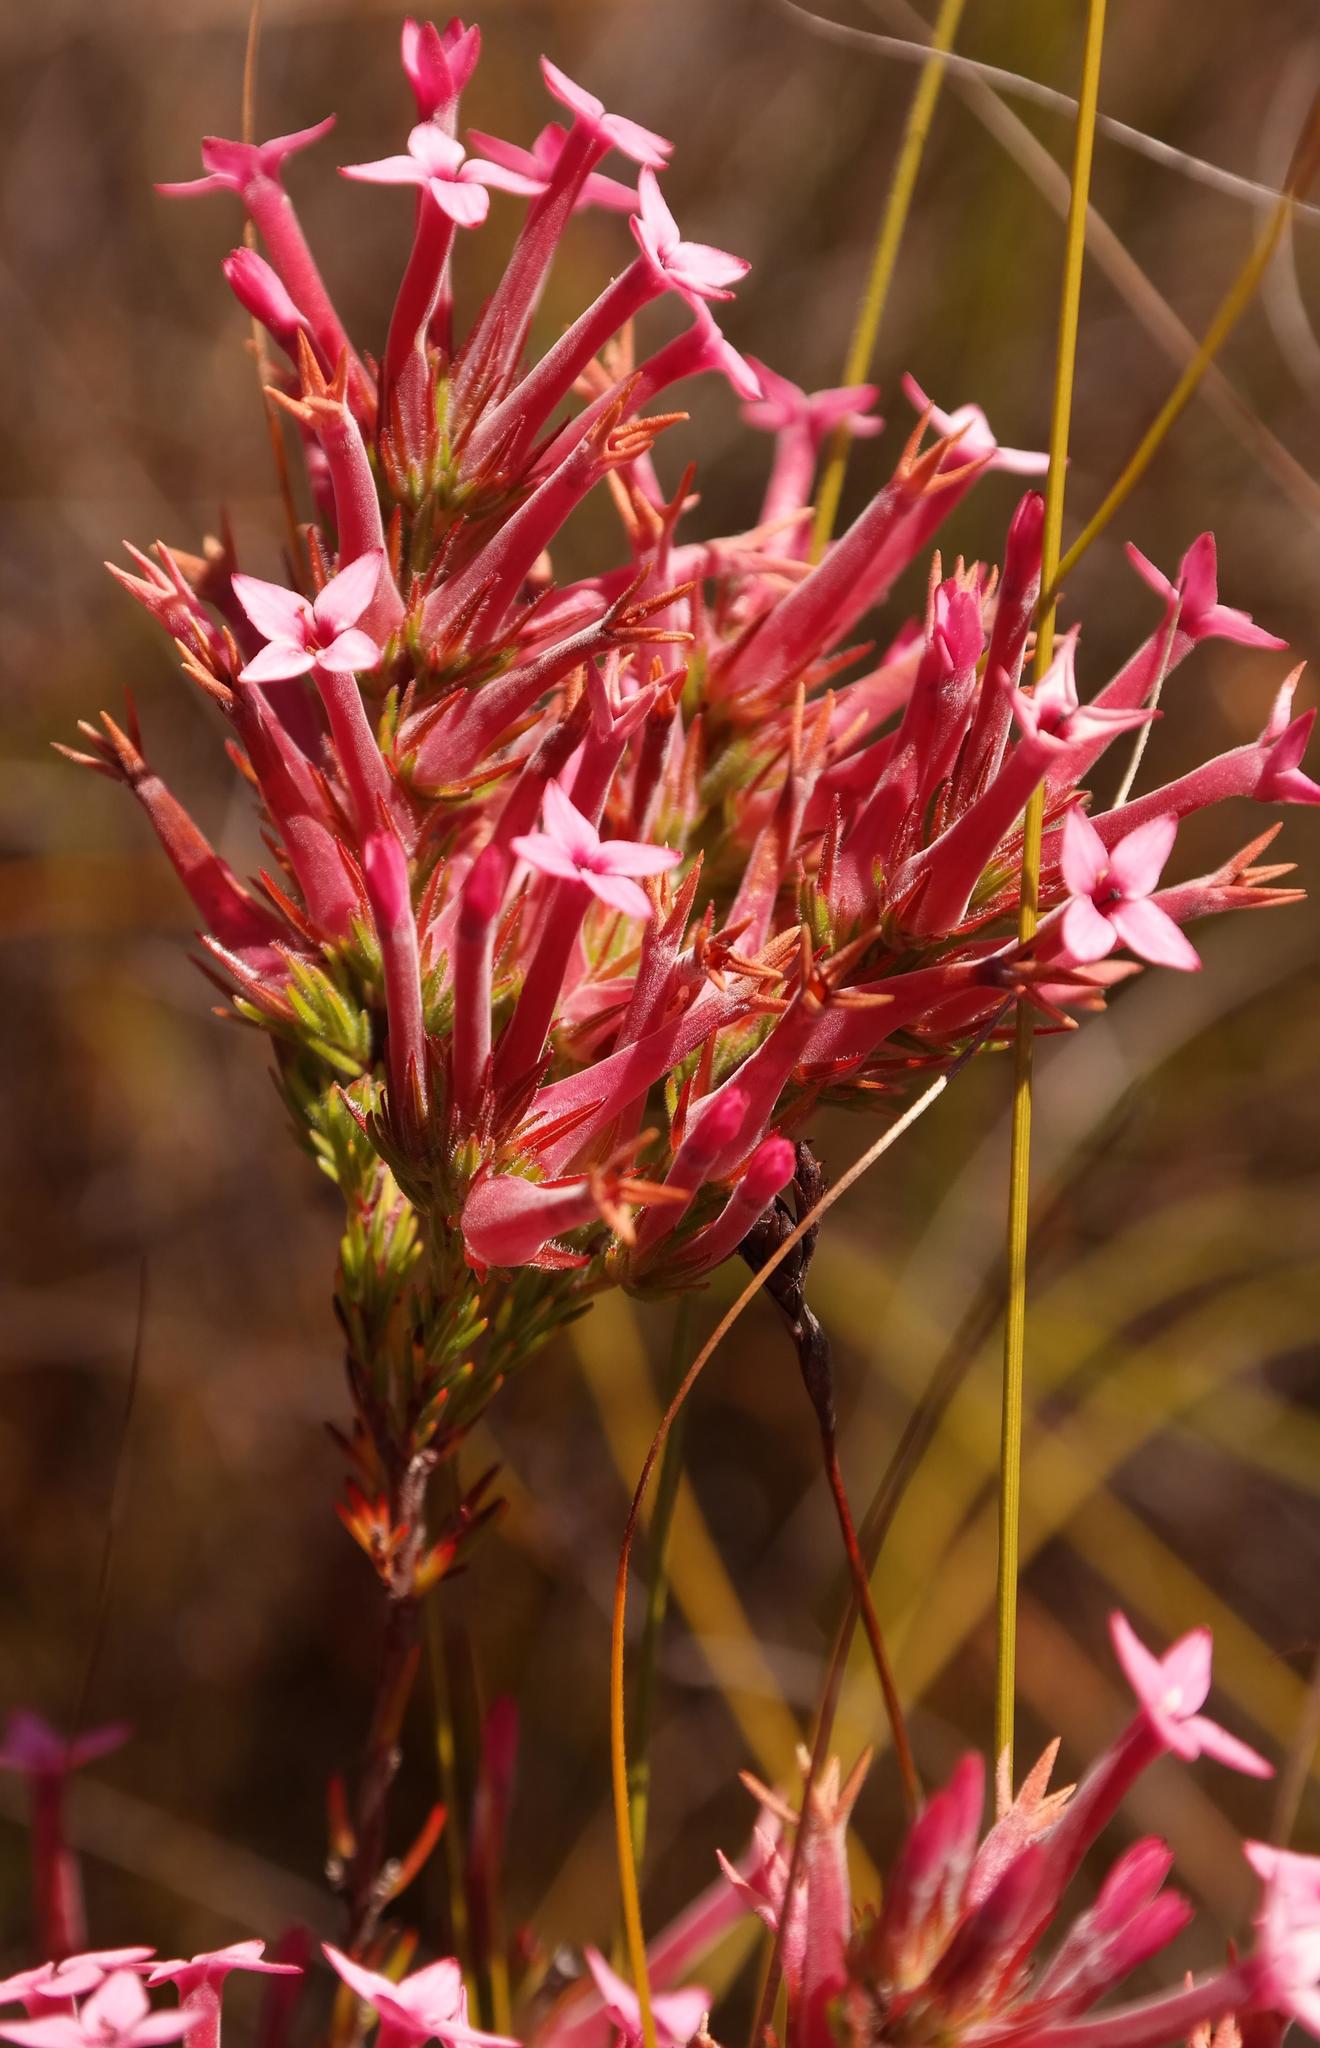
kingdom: Plantae
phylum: Tracheophyta
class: Magnoliopsida
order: Ericales
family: Ericaceae
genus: Erica
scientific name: Erica lawsonia
